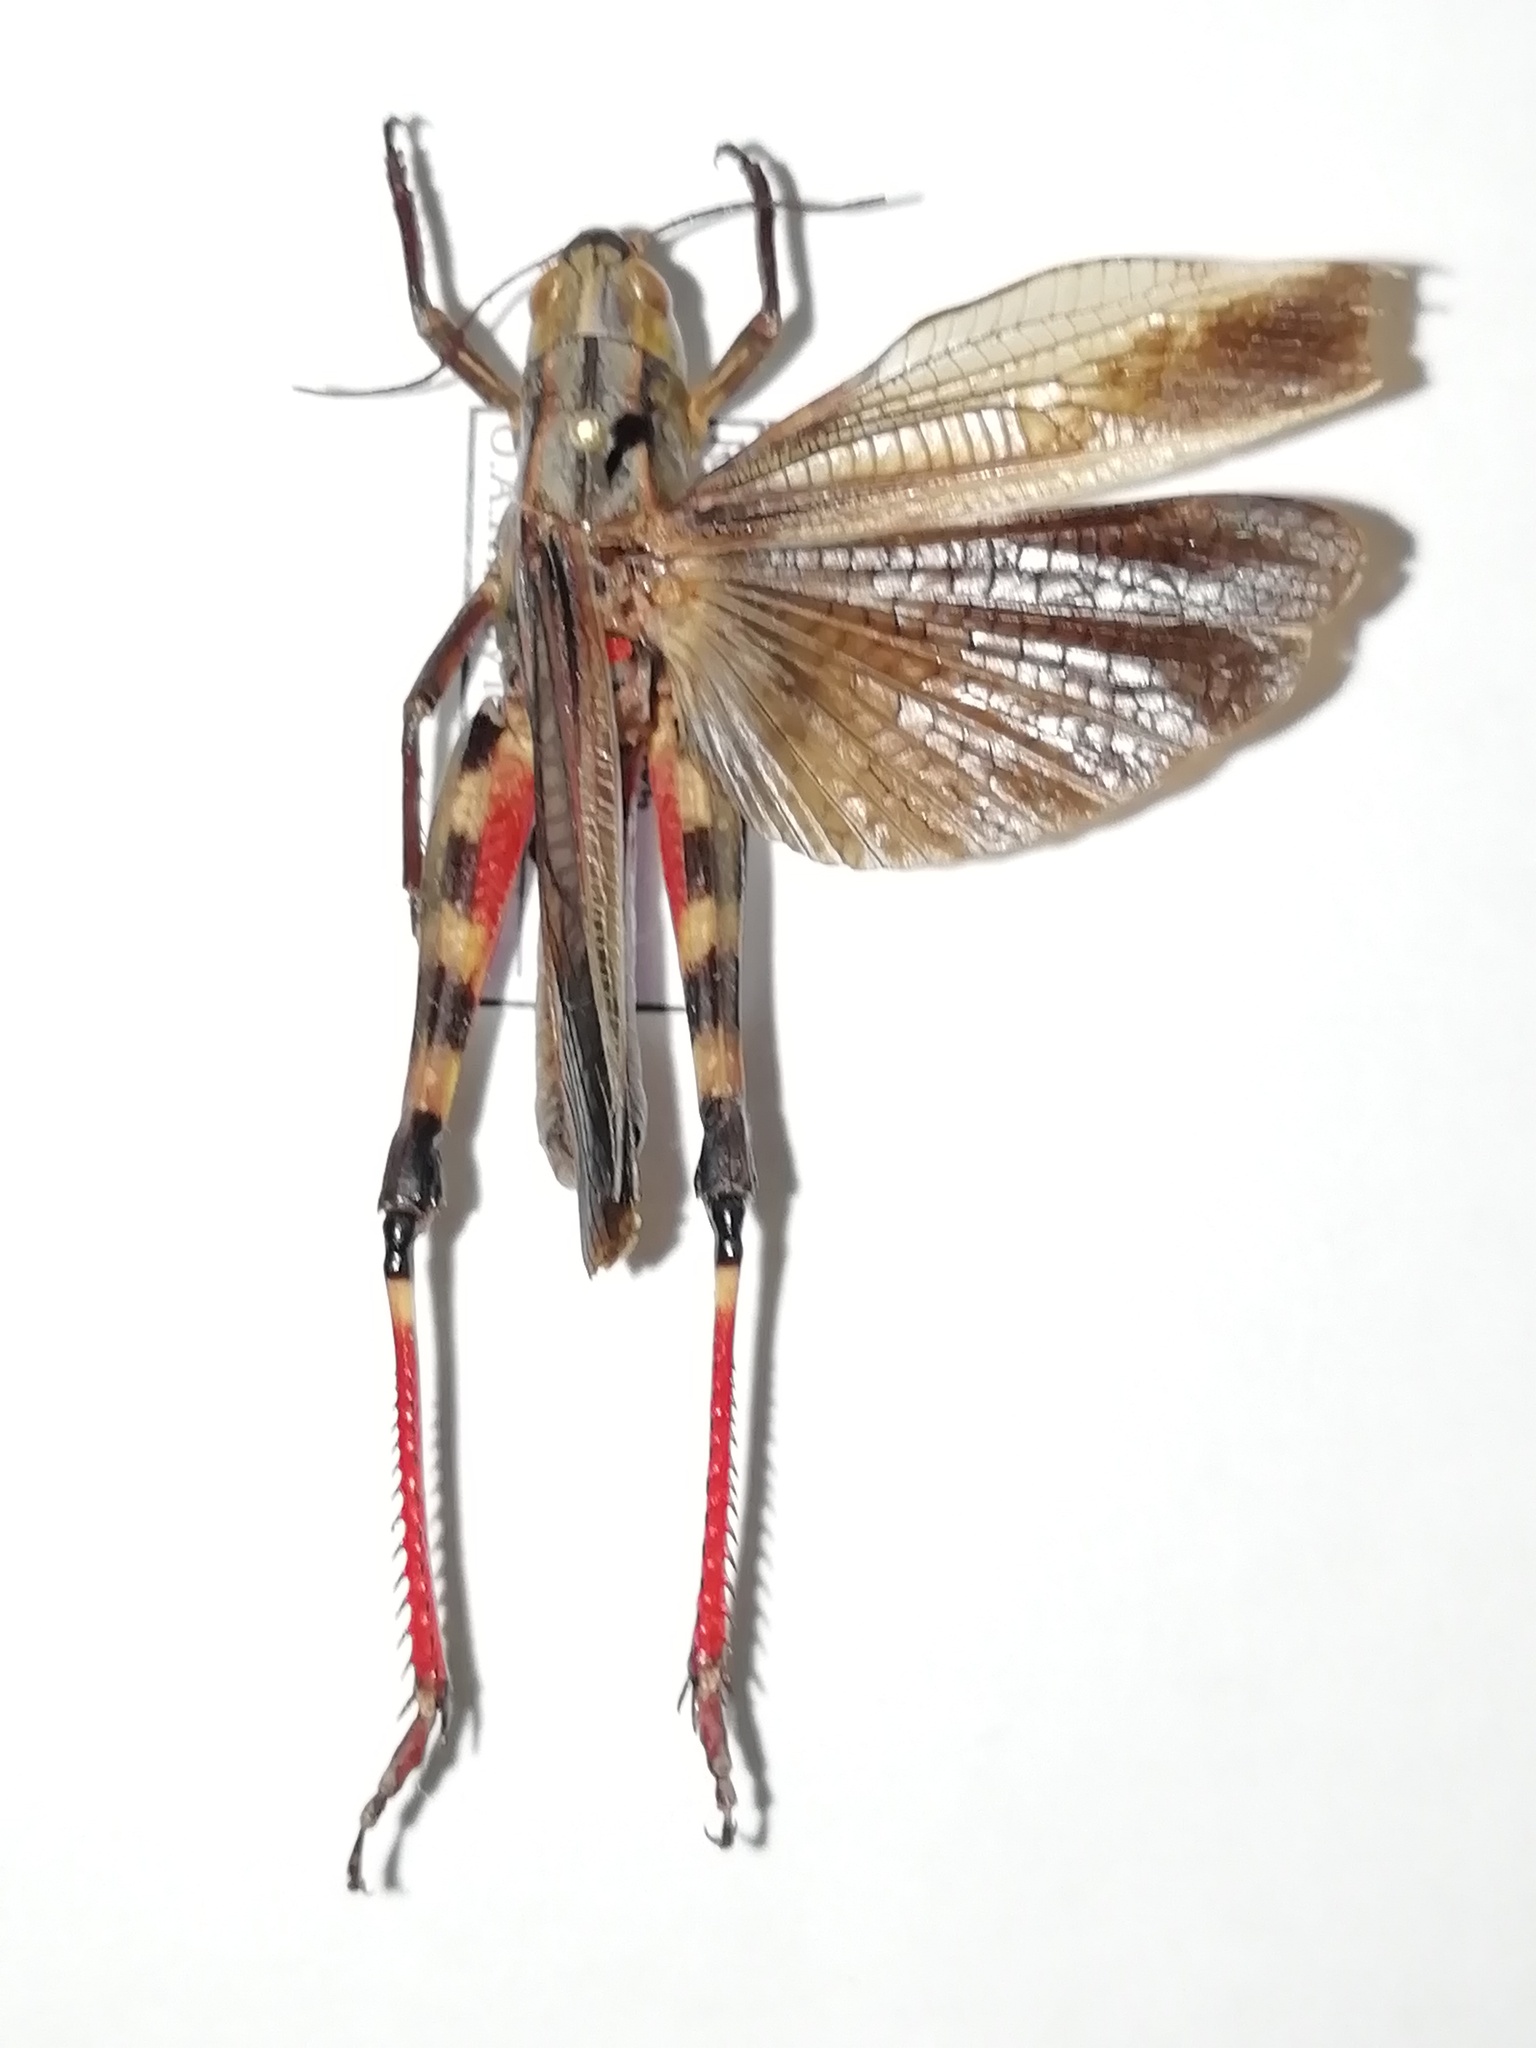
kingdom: Animalia
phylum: Arthropoda
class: Insecta
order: Orthoptera
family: Acrididae
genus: Arcyptera
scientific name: Arcyptera fusca
